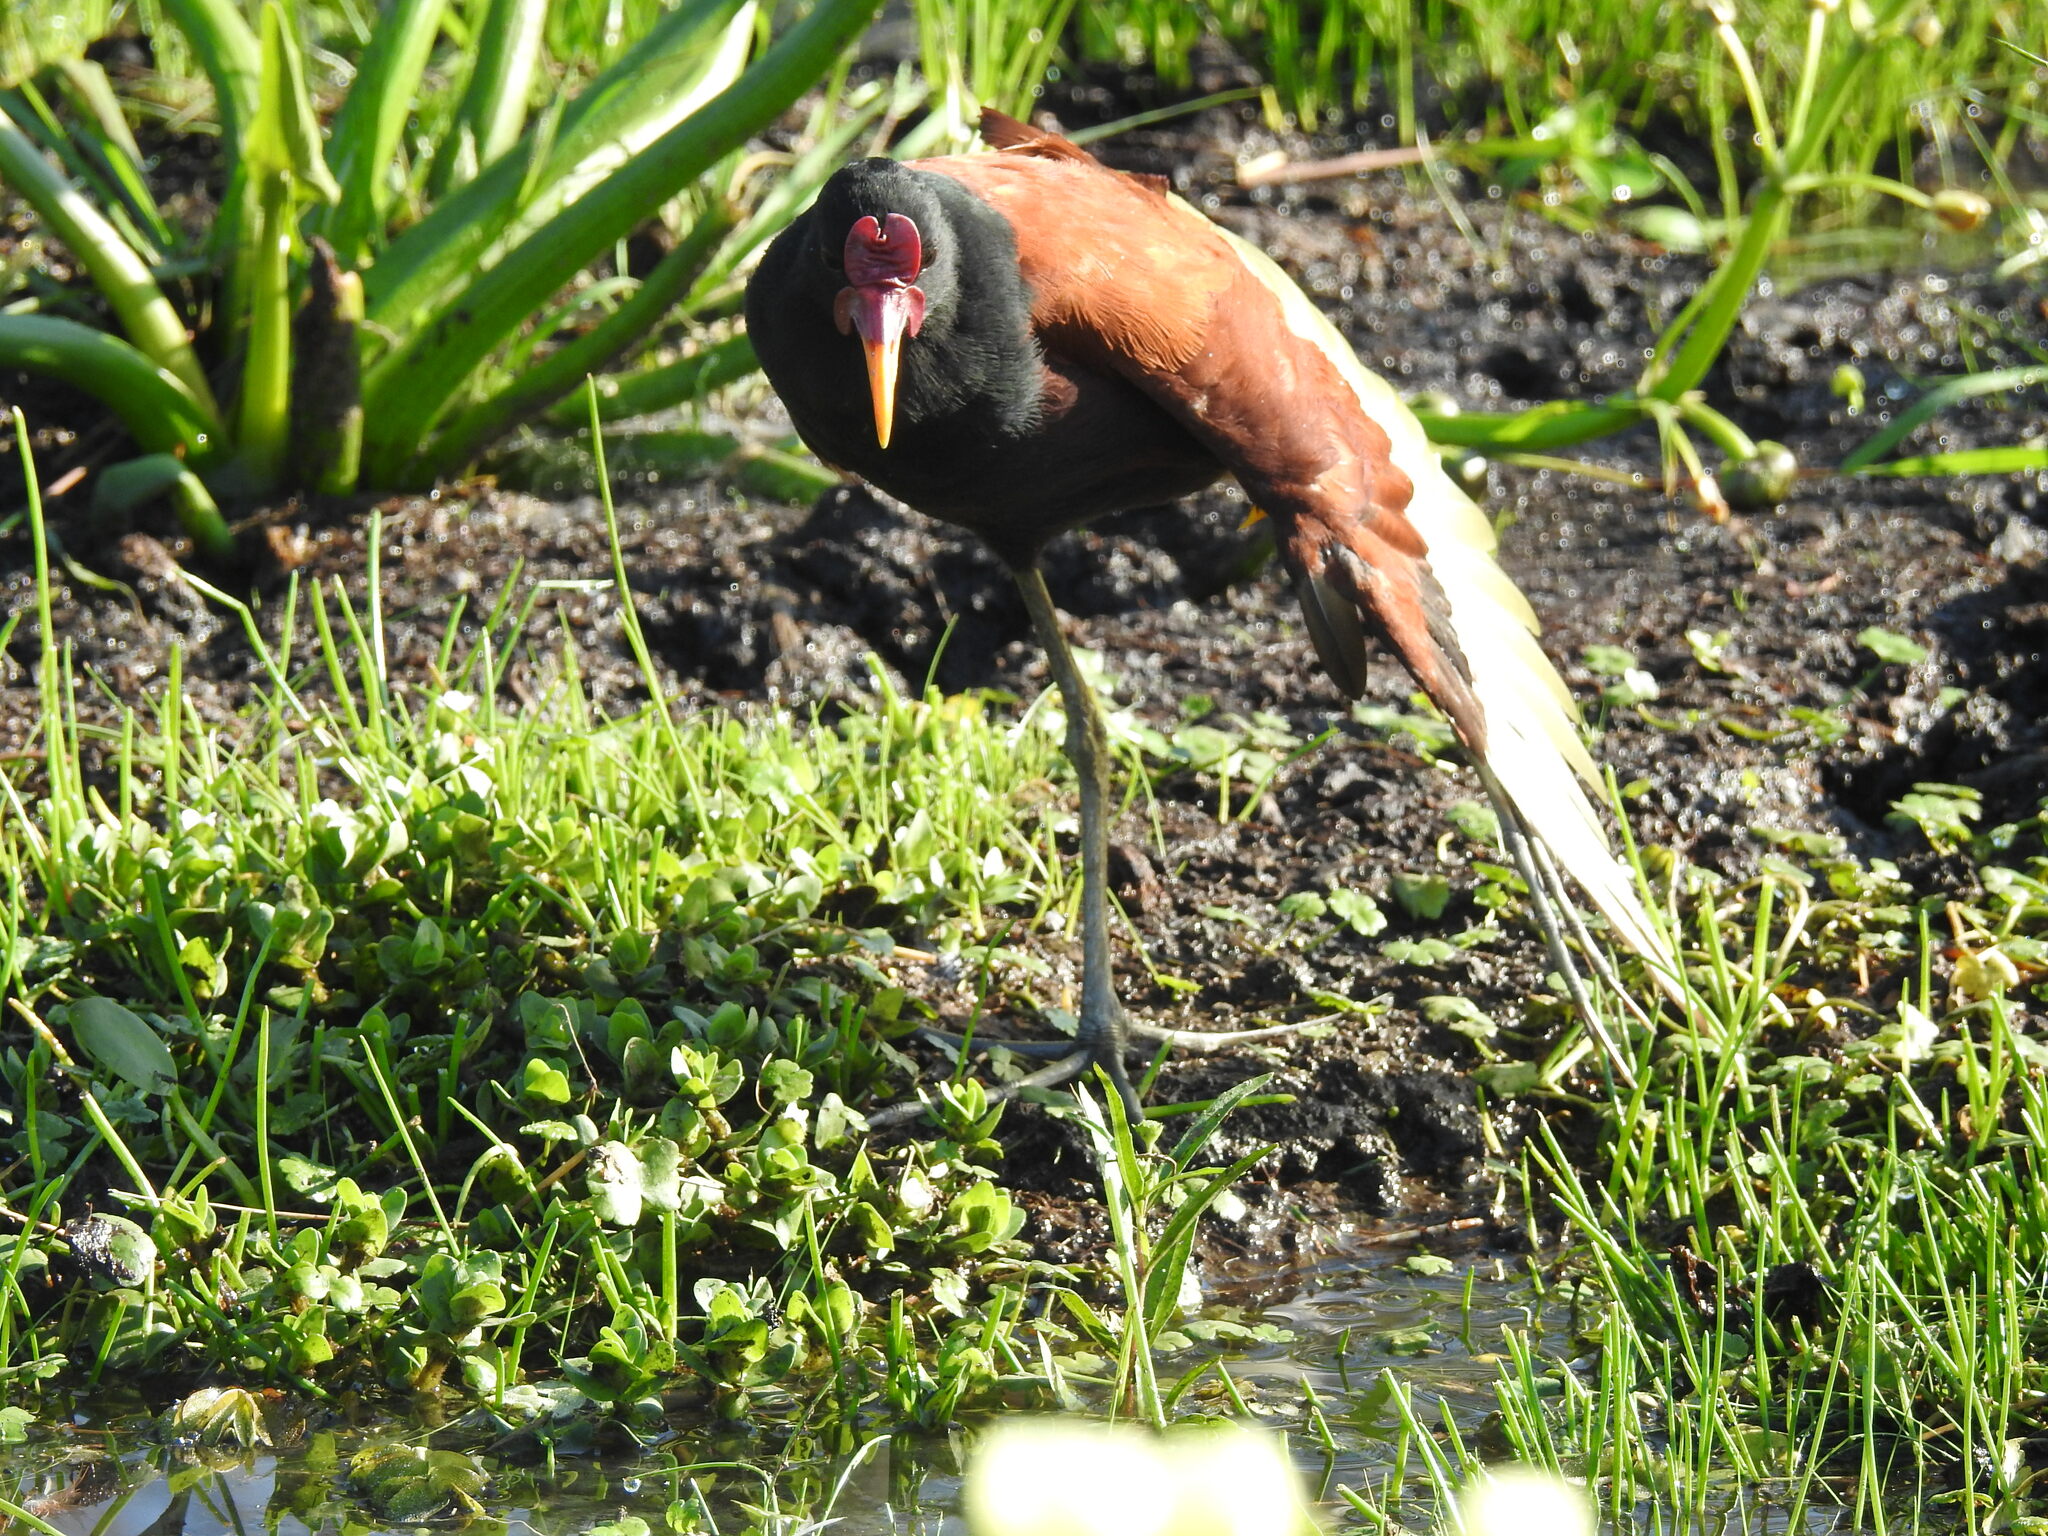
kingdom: Animalia
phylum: Chordata
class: Aves
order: Charadriiformes
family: Jacanidae
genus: Jacana
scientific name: Jacana jacana
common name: Wattled jacana
